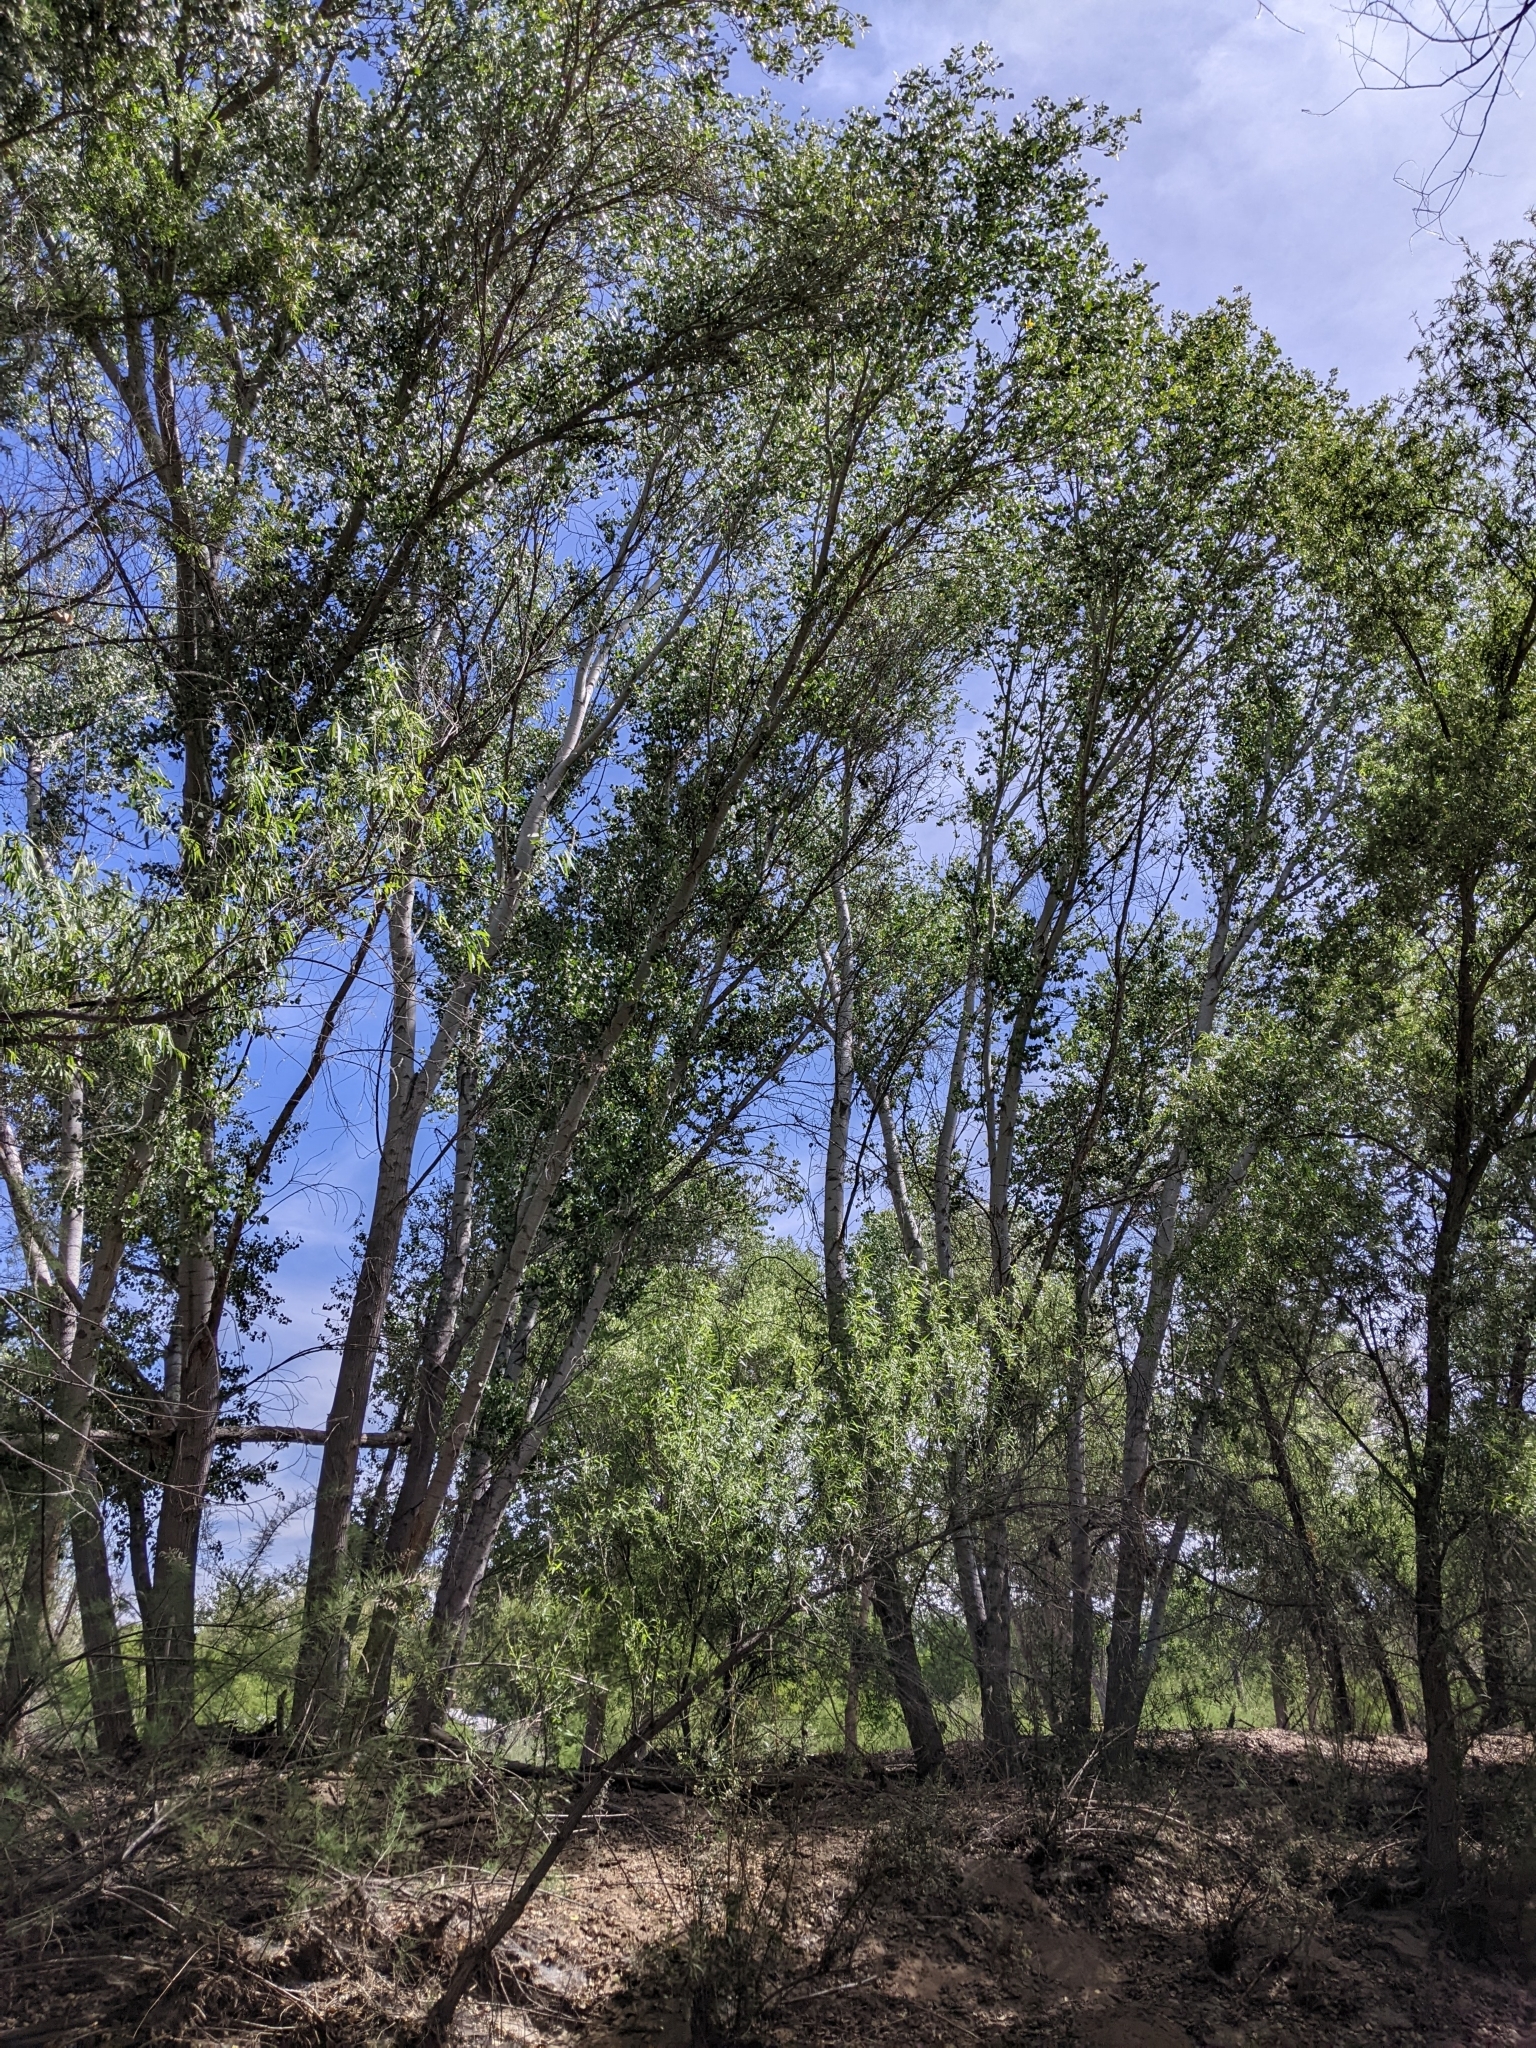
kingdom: Plantae
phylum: Tracheophyta
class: Magnoliopsida
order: Malpighiales
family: Salicaceae
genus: Populus
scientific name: Populus fremontii
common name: Fremont's cottonwood
